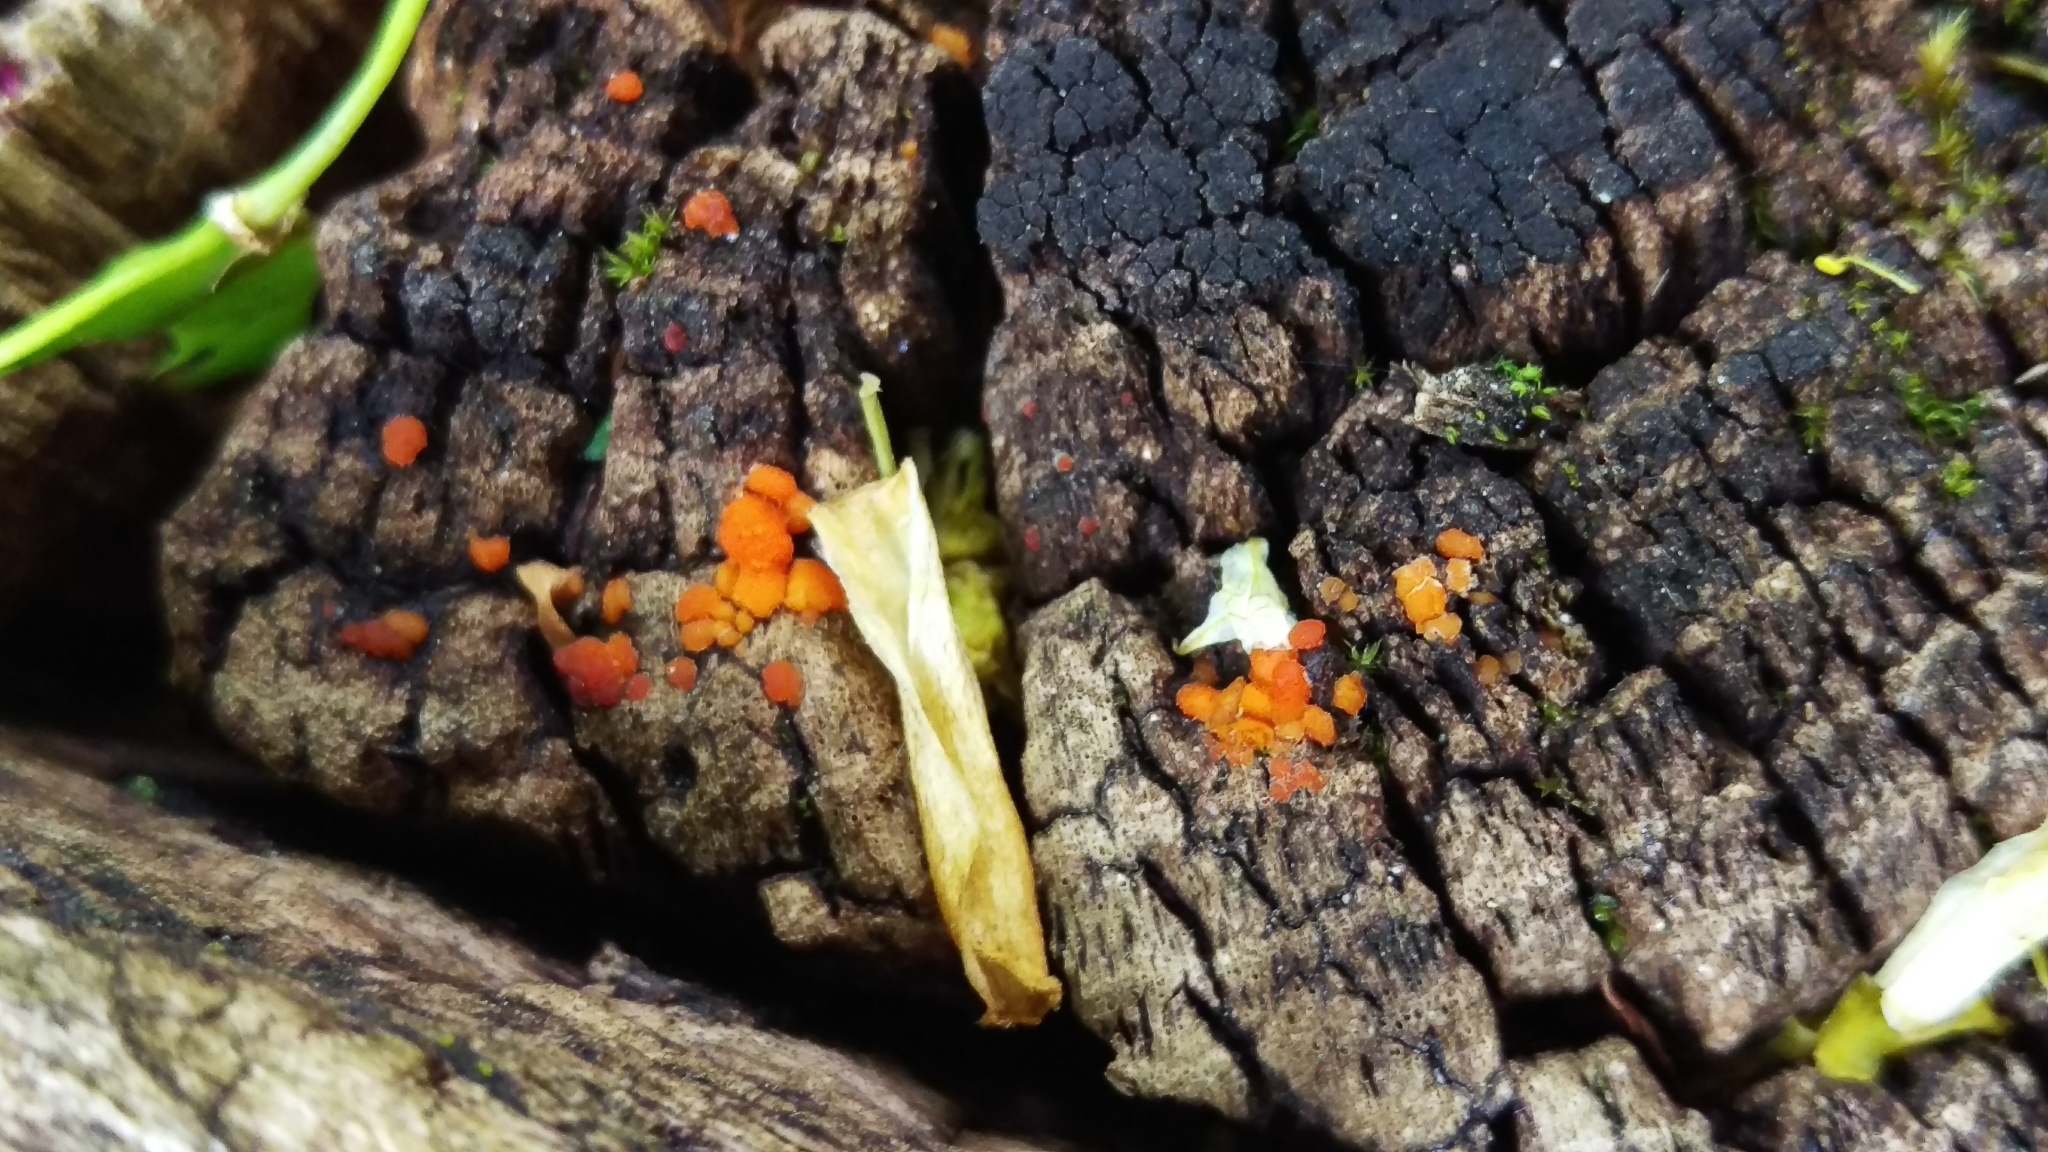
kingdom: Fungi
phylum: Basidiomycota
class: Dacrymycetes
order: Dacrymycetales
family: Dacrymycetaceae
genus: Dacrymyces
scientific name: Dacrymyces stillatus
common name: Common jelly spot
